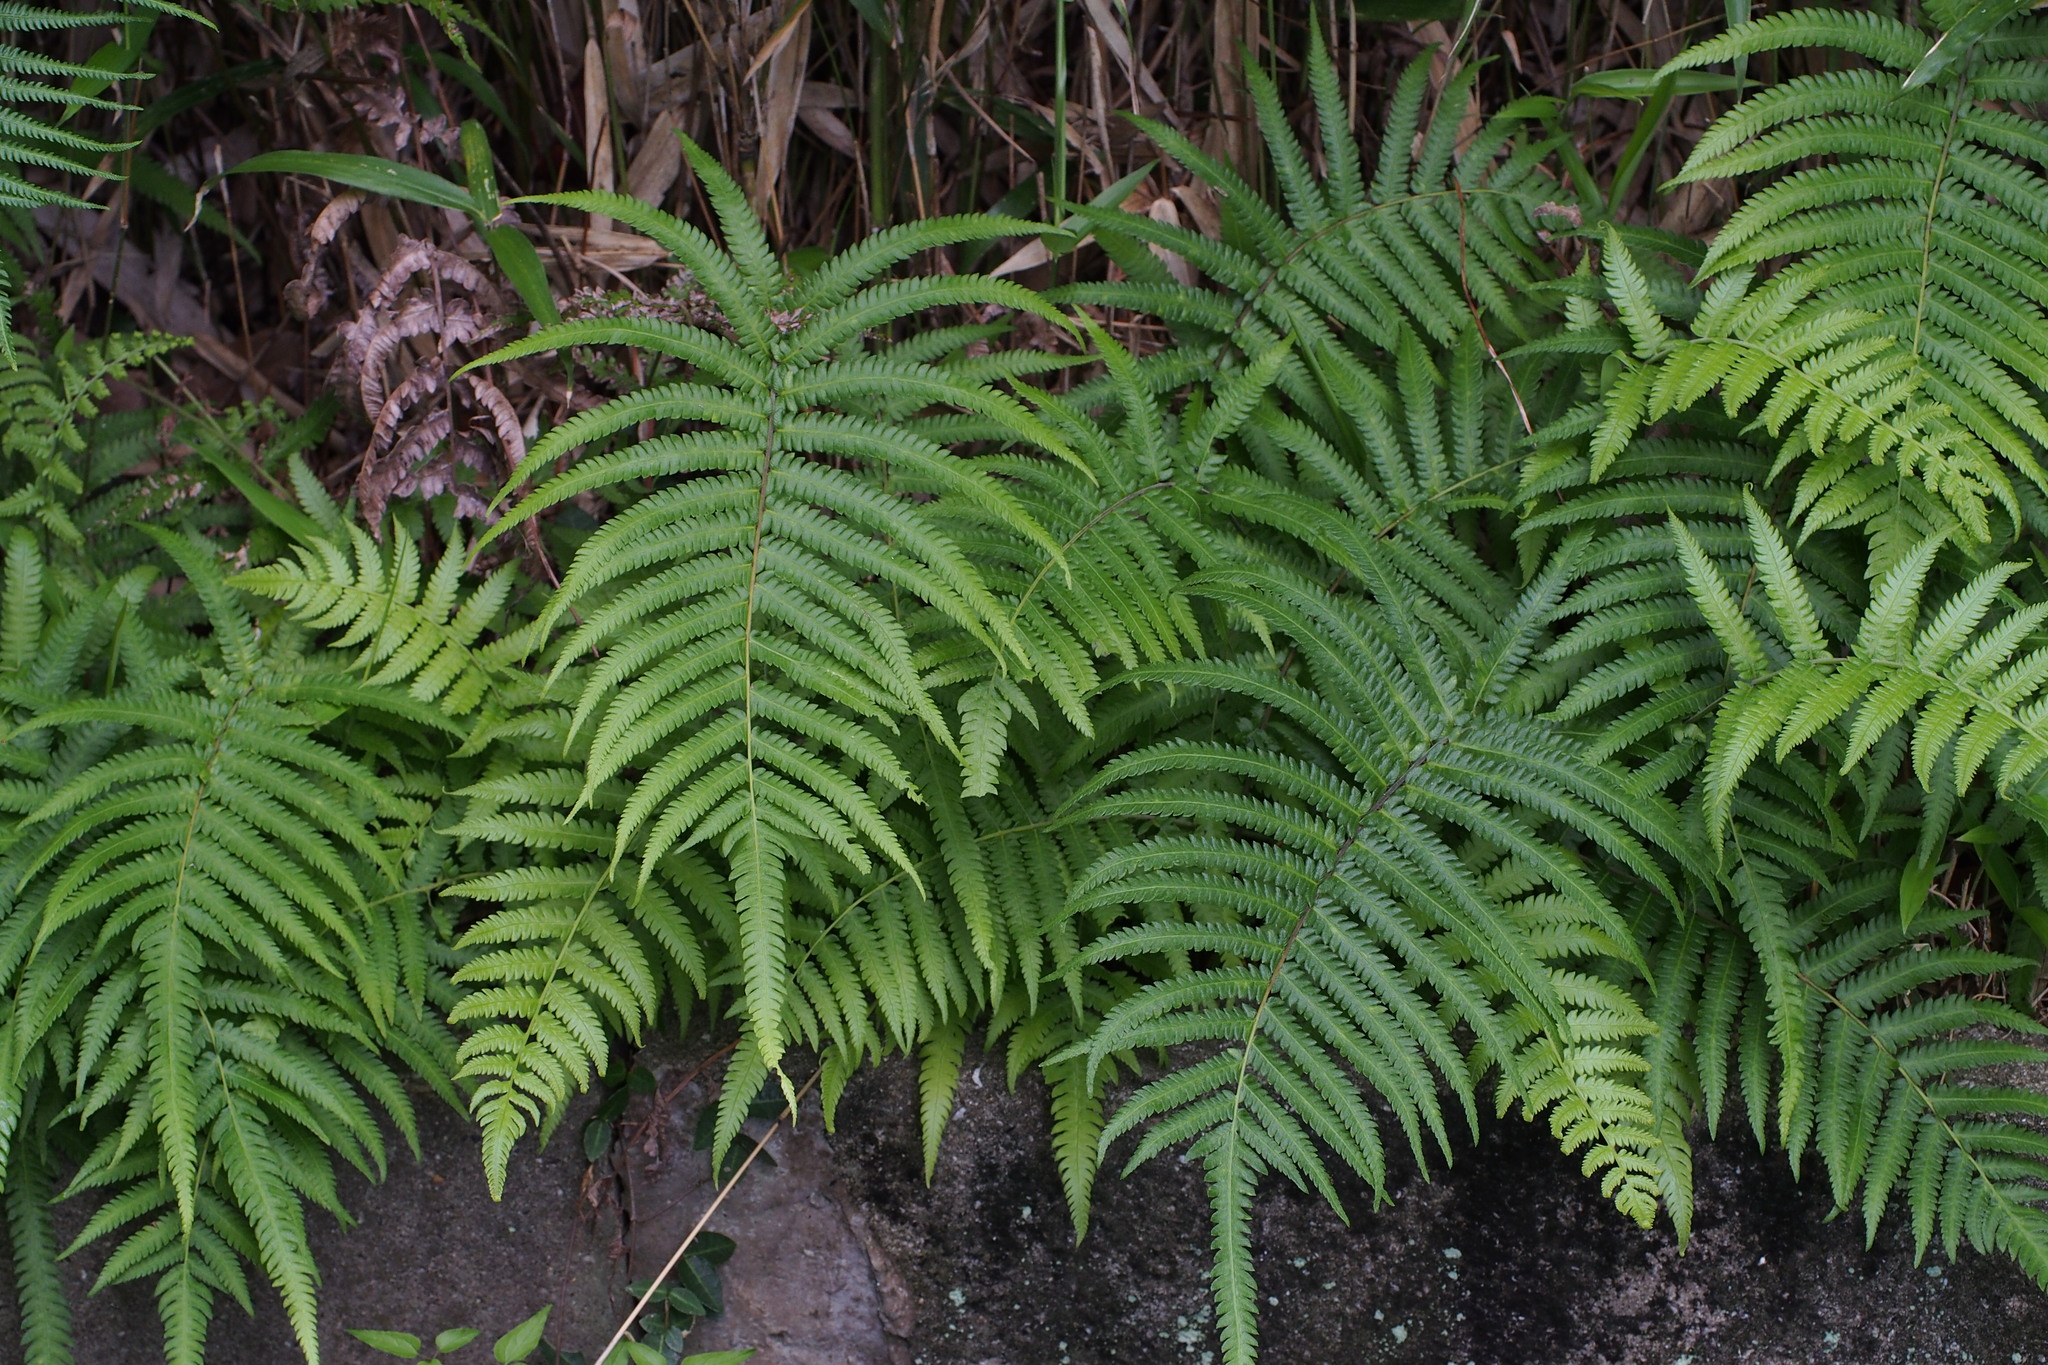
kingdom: Plantae
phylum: Tracheophyta
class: Polypodiopsida
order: Polypodiales
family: Thelypteridaceae
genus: Christella
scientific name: Christella acuminata
